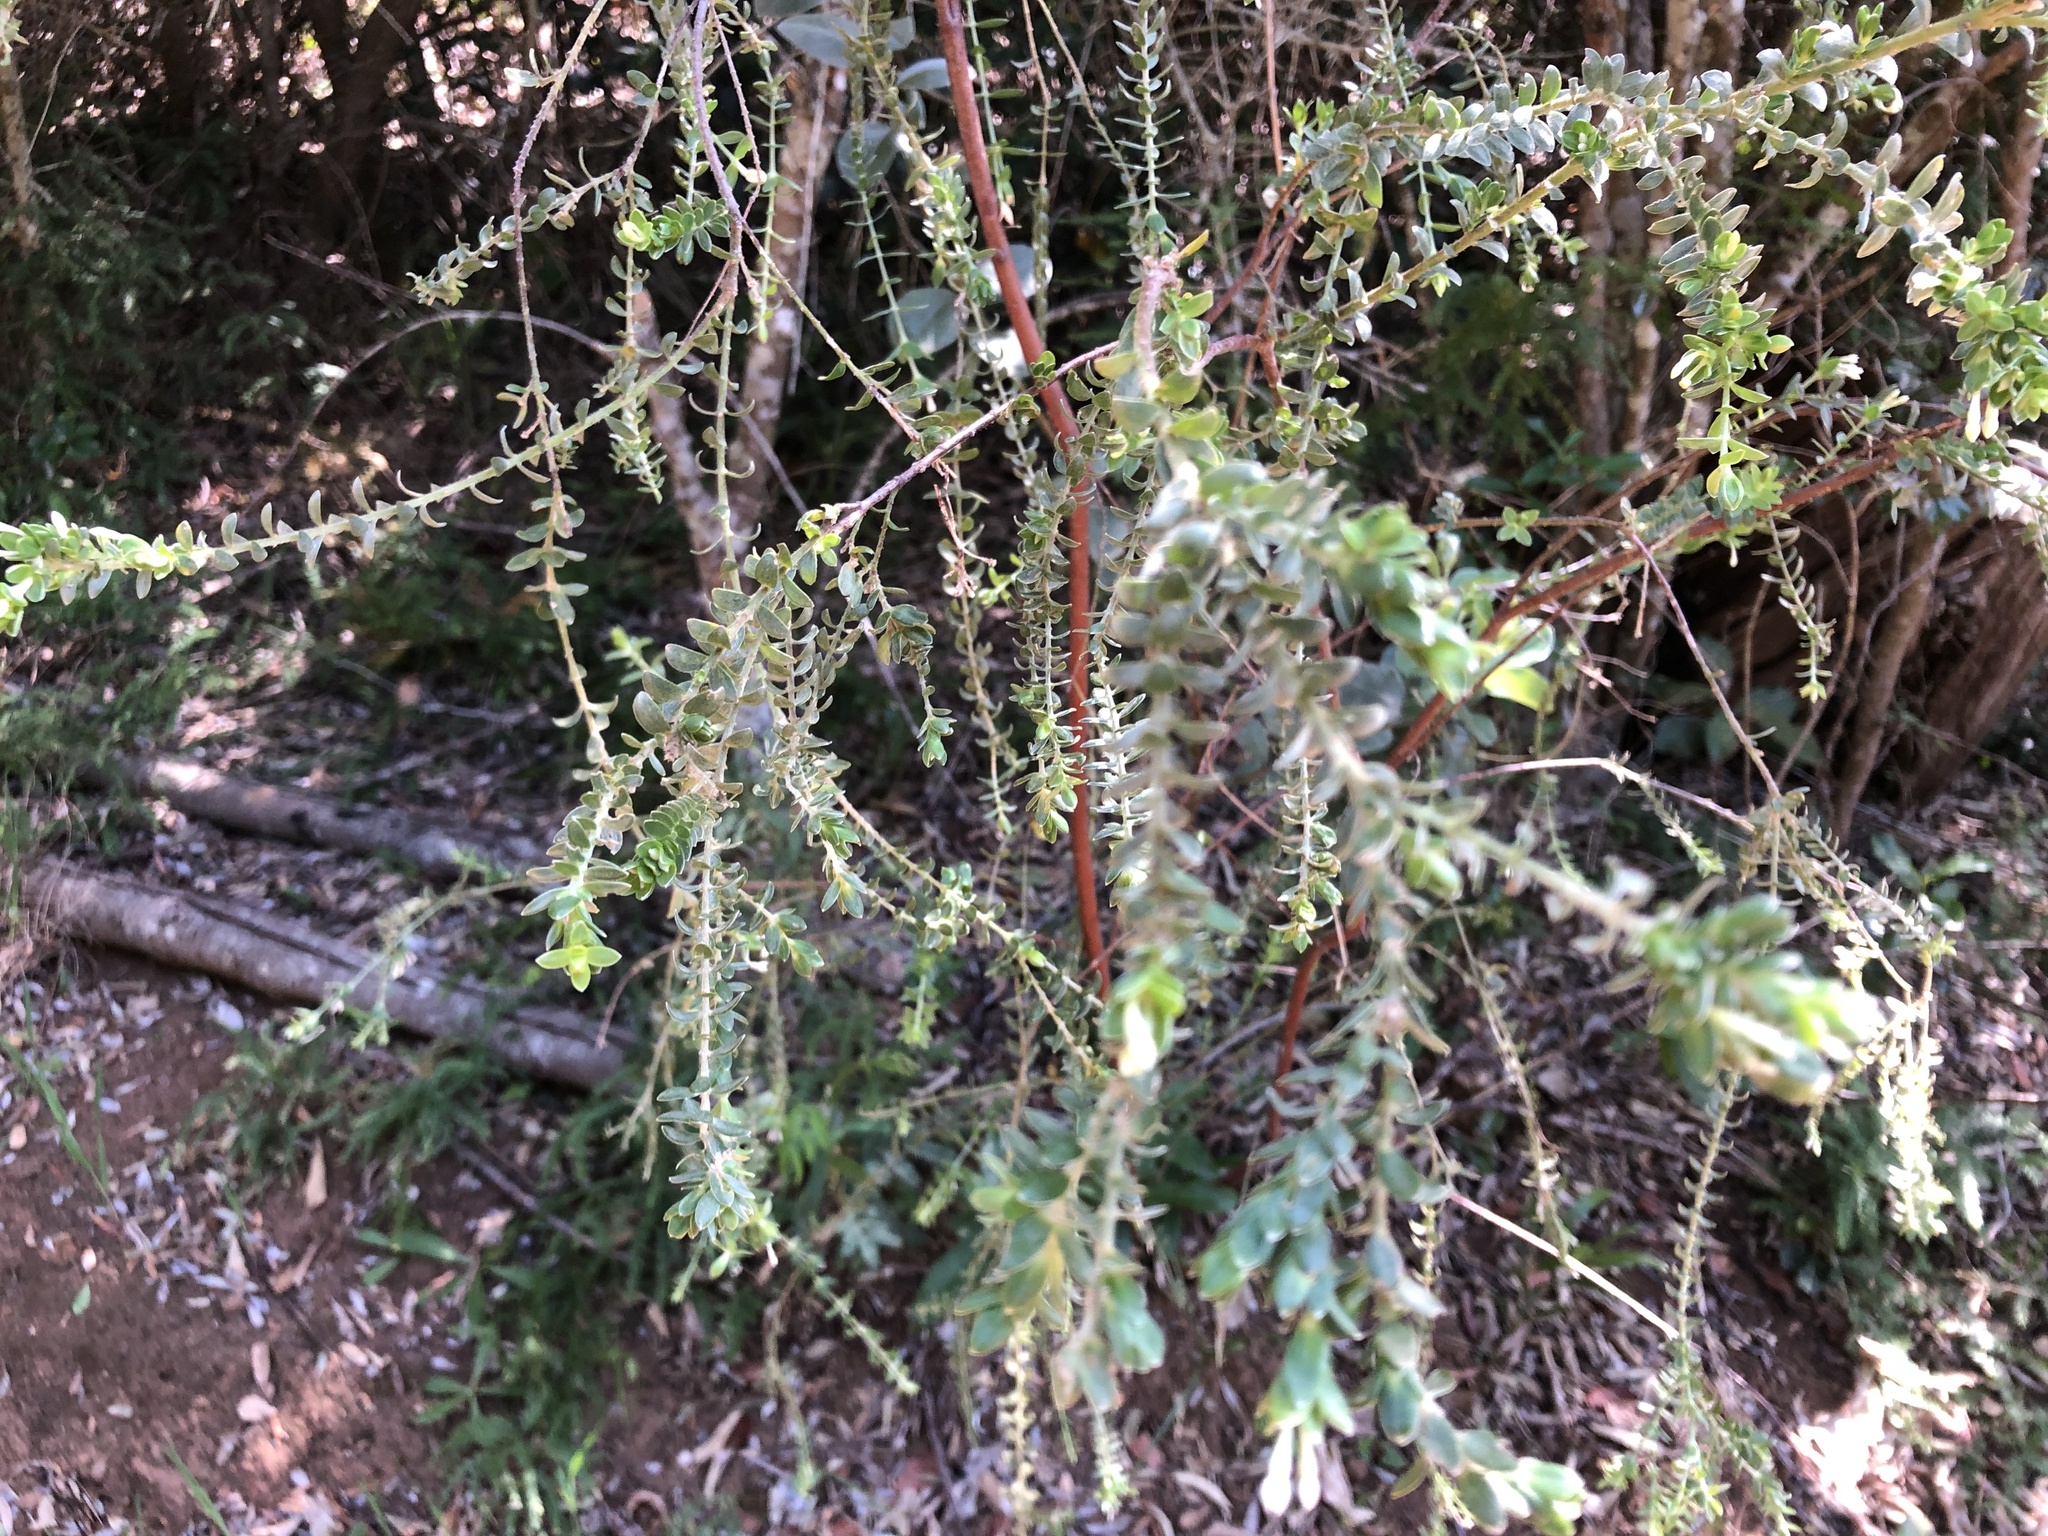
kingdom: Plantae
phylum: Tracheophyta
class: Magnoliopsida
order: Malvales
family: Thymelaeaceae
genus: Gnidia
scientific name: Gnidia sericea
